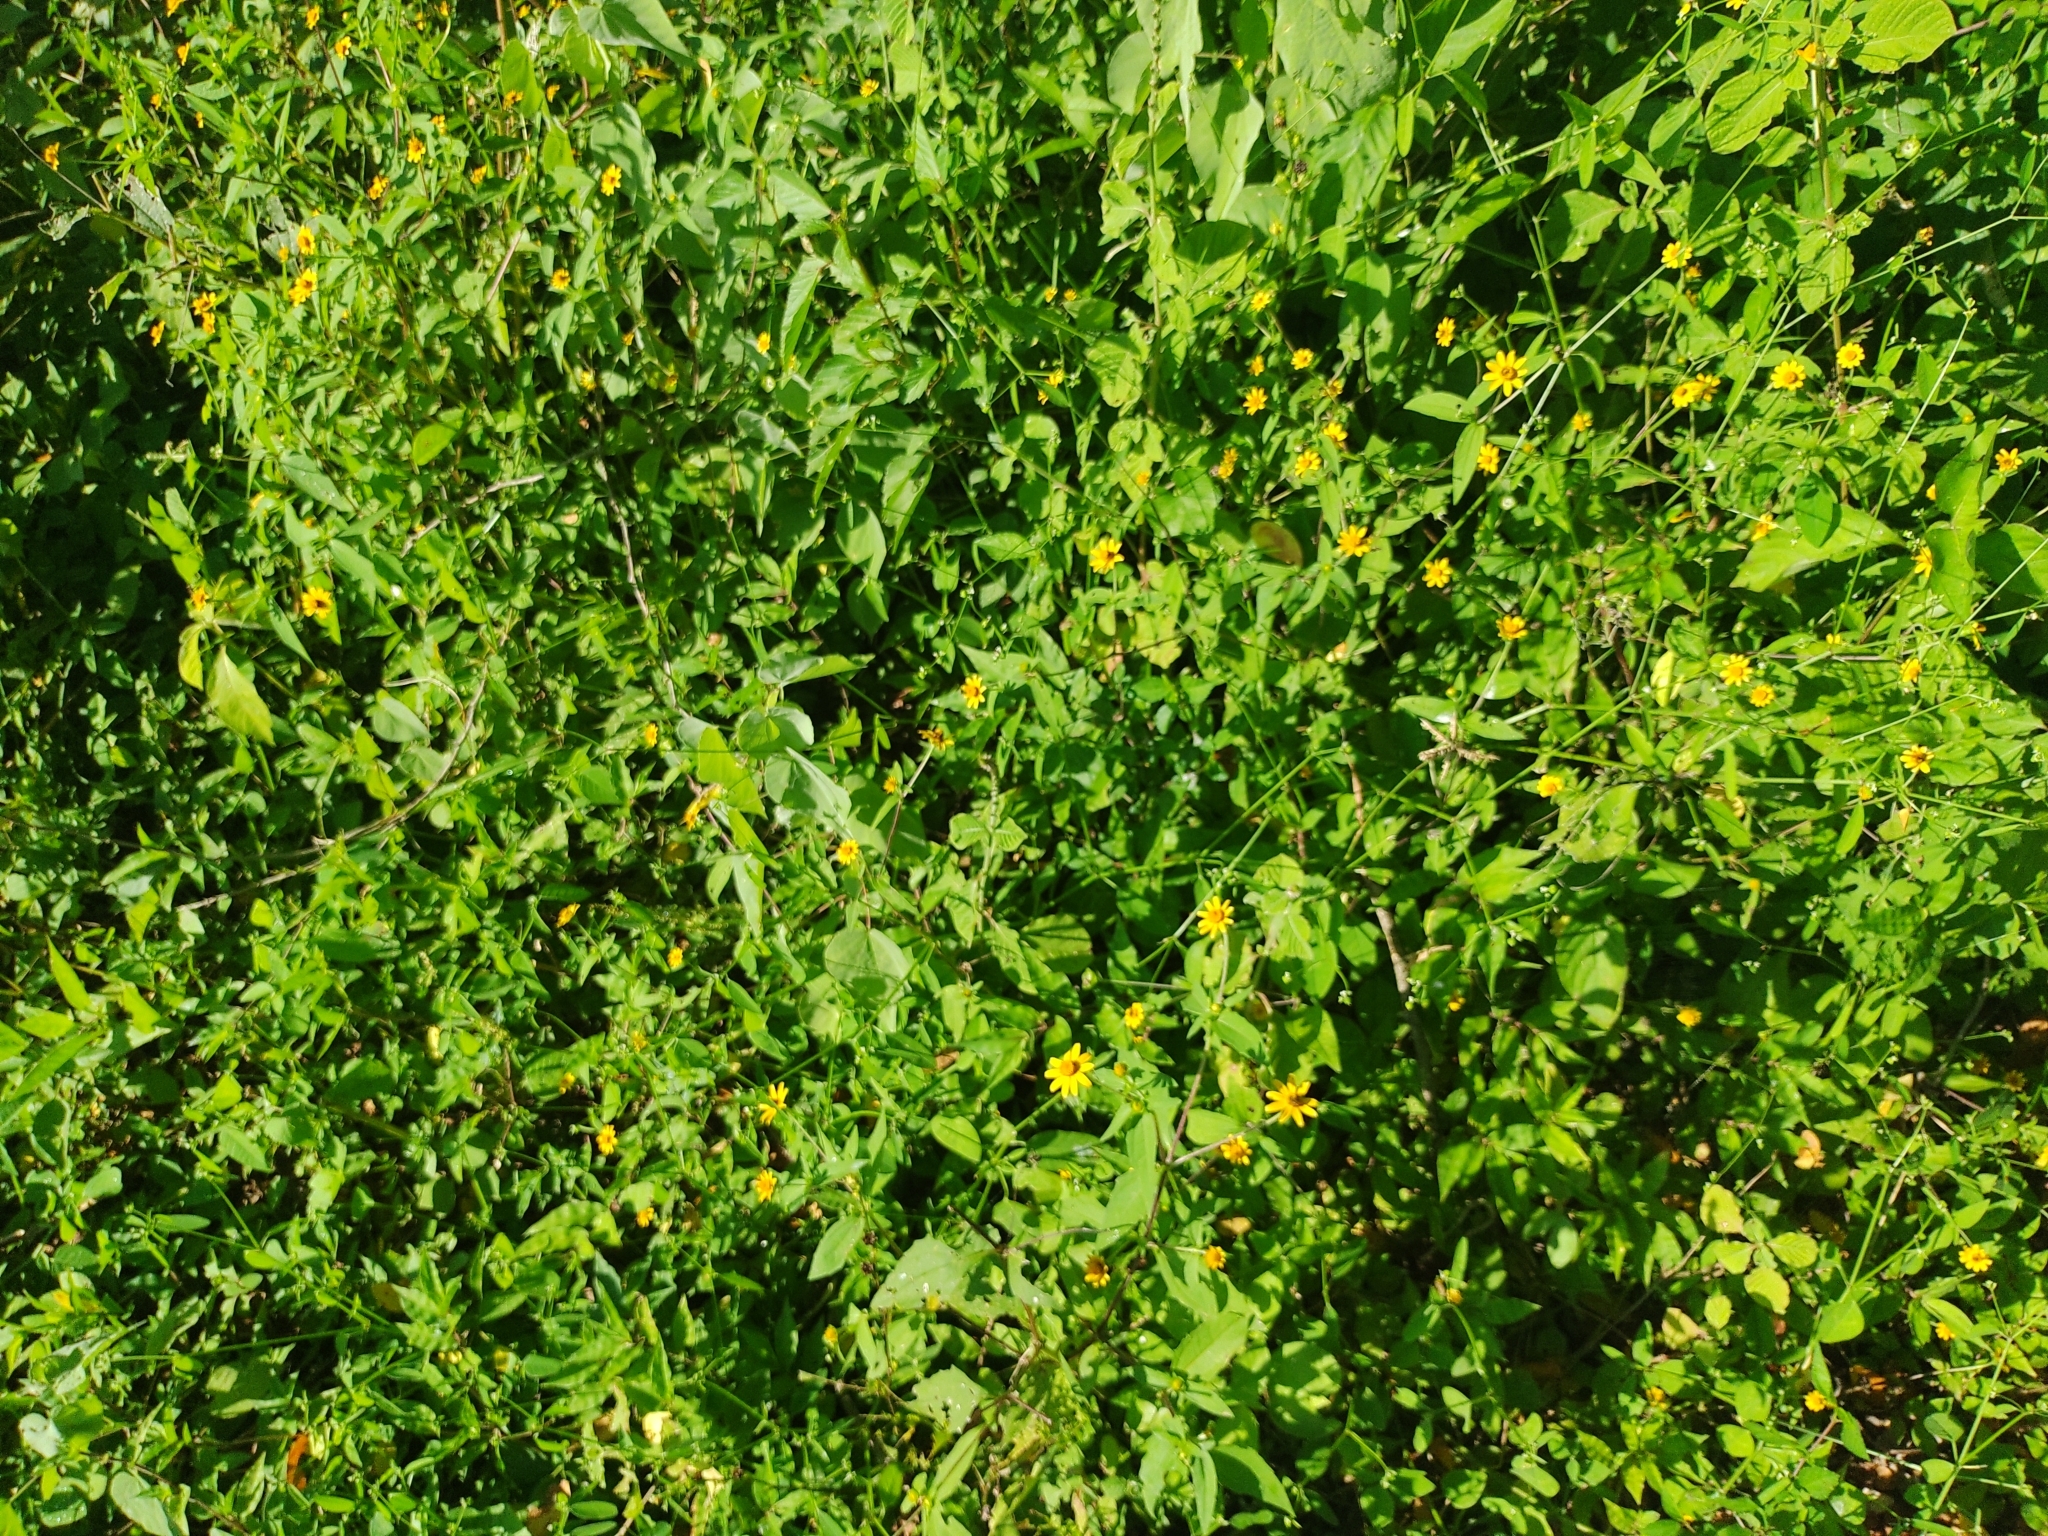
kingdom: Plantae
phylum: Tracheophyta
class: Magnoliopsida
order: Asterales
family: Asteraceae
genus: Melampodium
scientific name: Melampodium divaricatum
